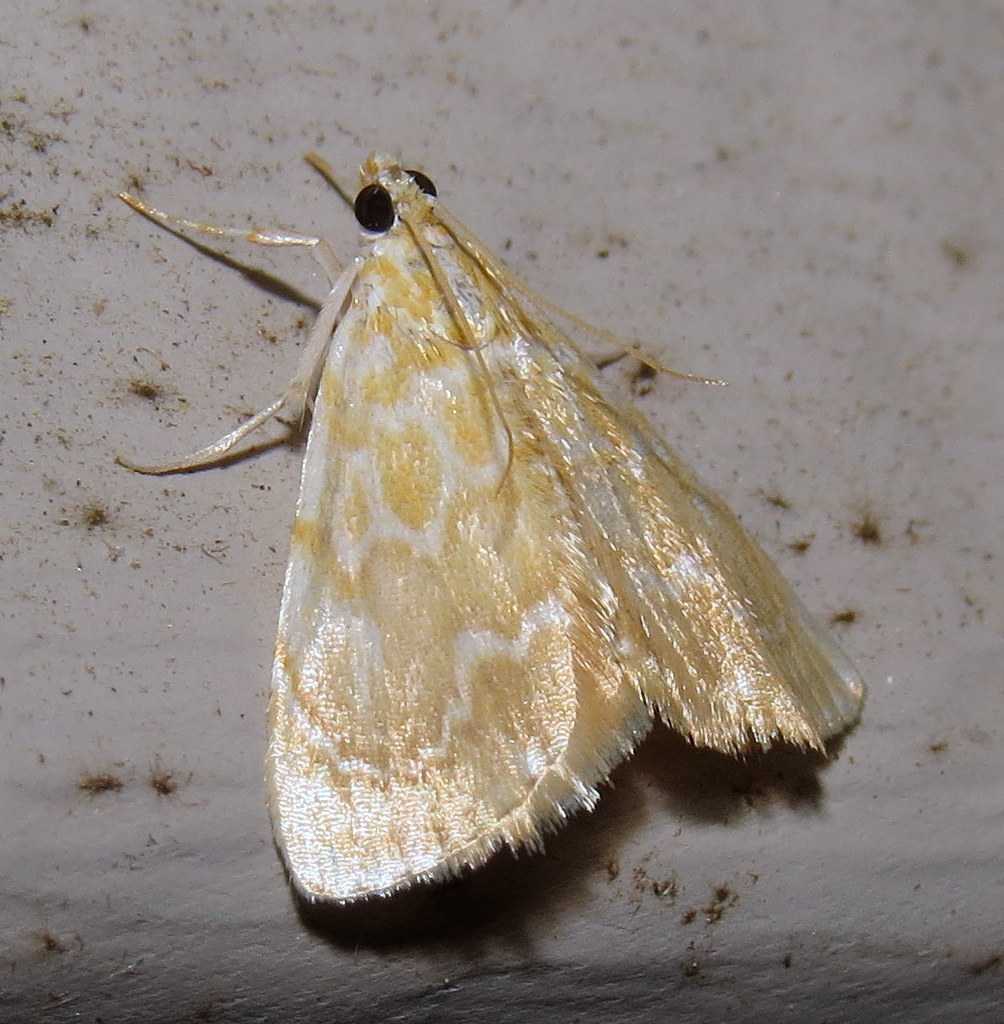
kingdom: Animalia
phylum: Arthropoda
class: Insecta
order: Lepidoptera
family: Crambidae
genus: Glaphyria
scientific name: Glaphyria glaphyralis
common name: Common glaphyria moth
